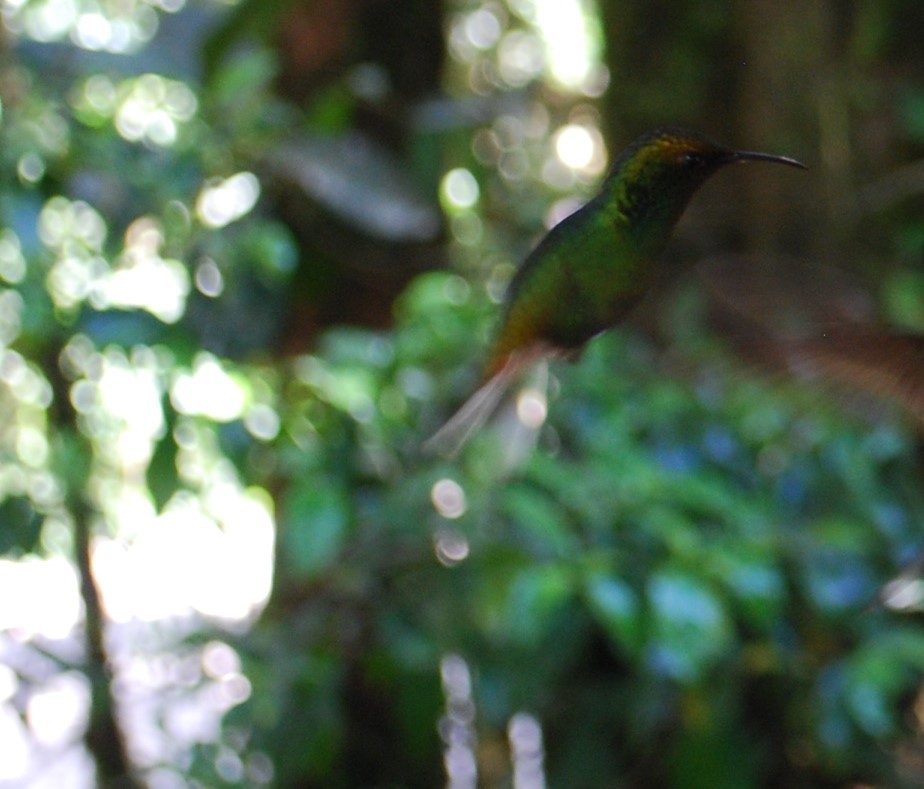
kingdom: Animalia
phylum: Chordata
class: Aves
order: Apodiformes
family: Trochilidae
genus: Microchera
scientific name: Microchera cupreiceps
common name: Coppery-headed emerald
